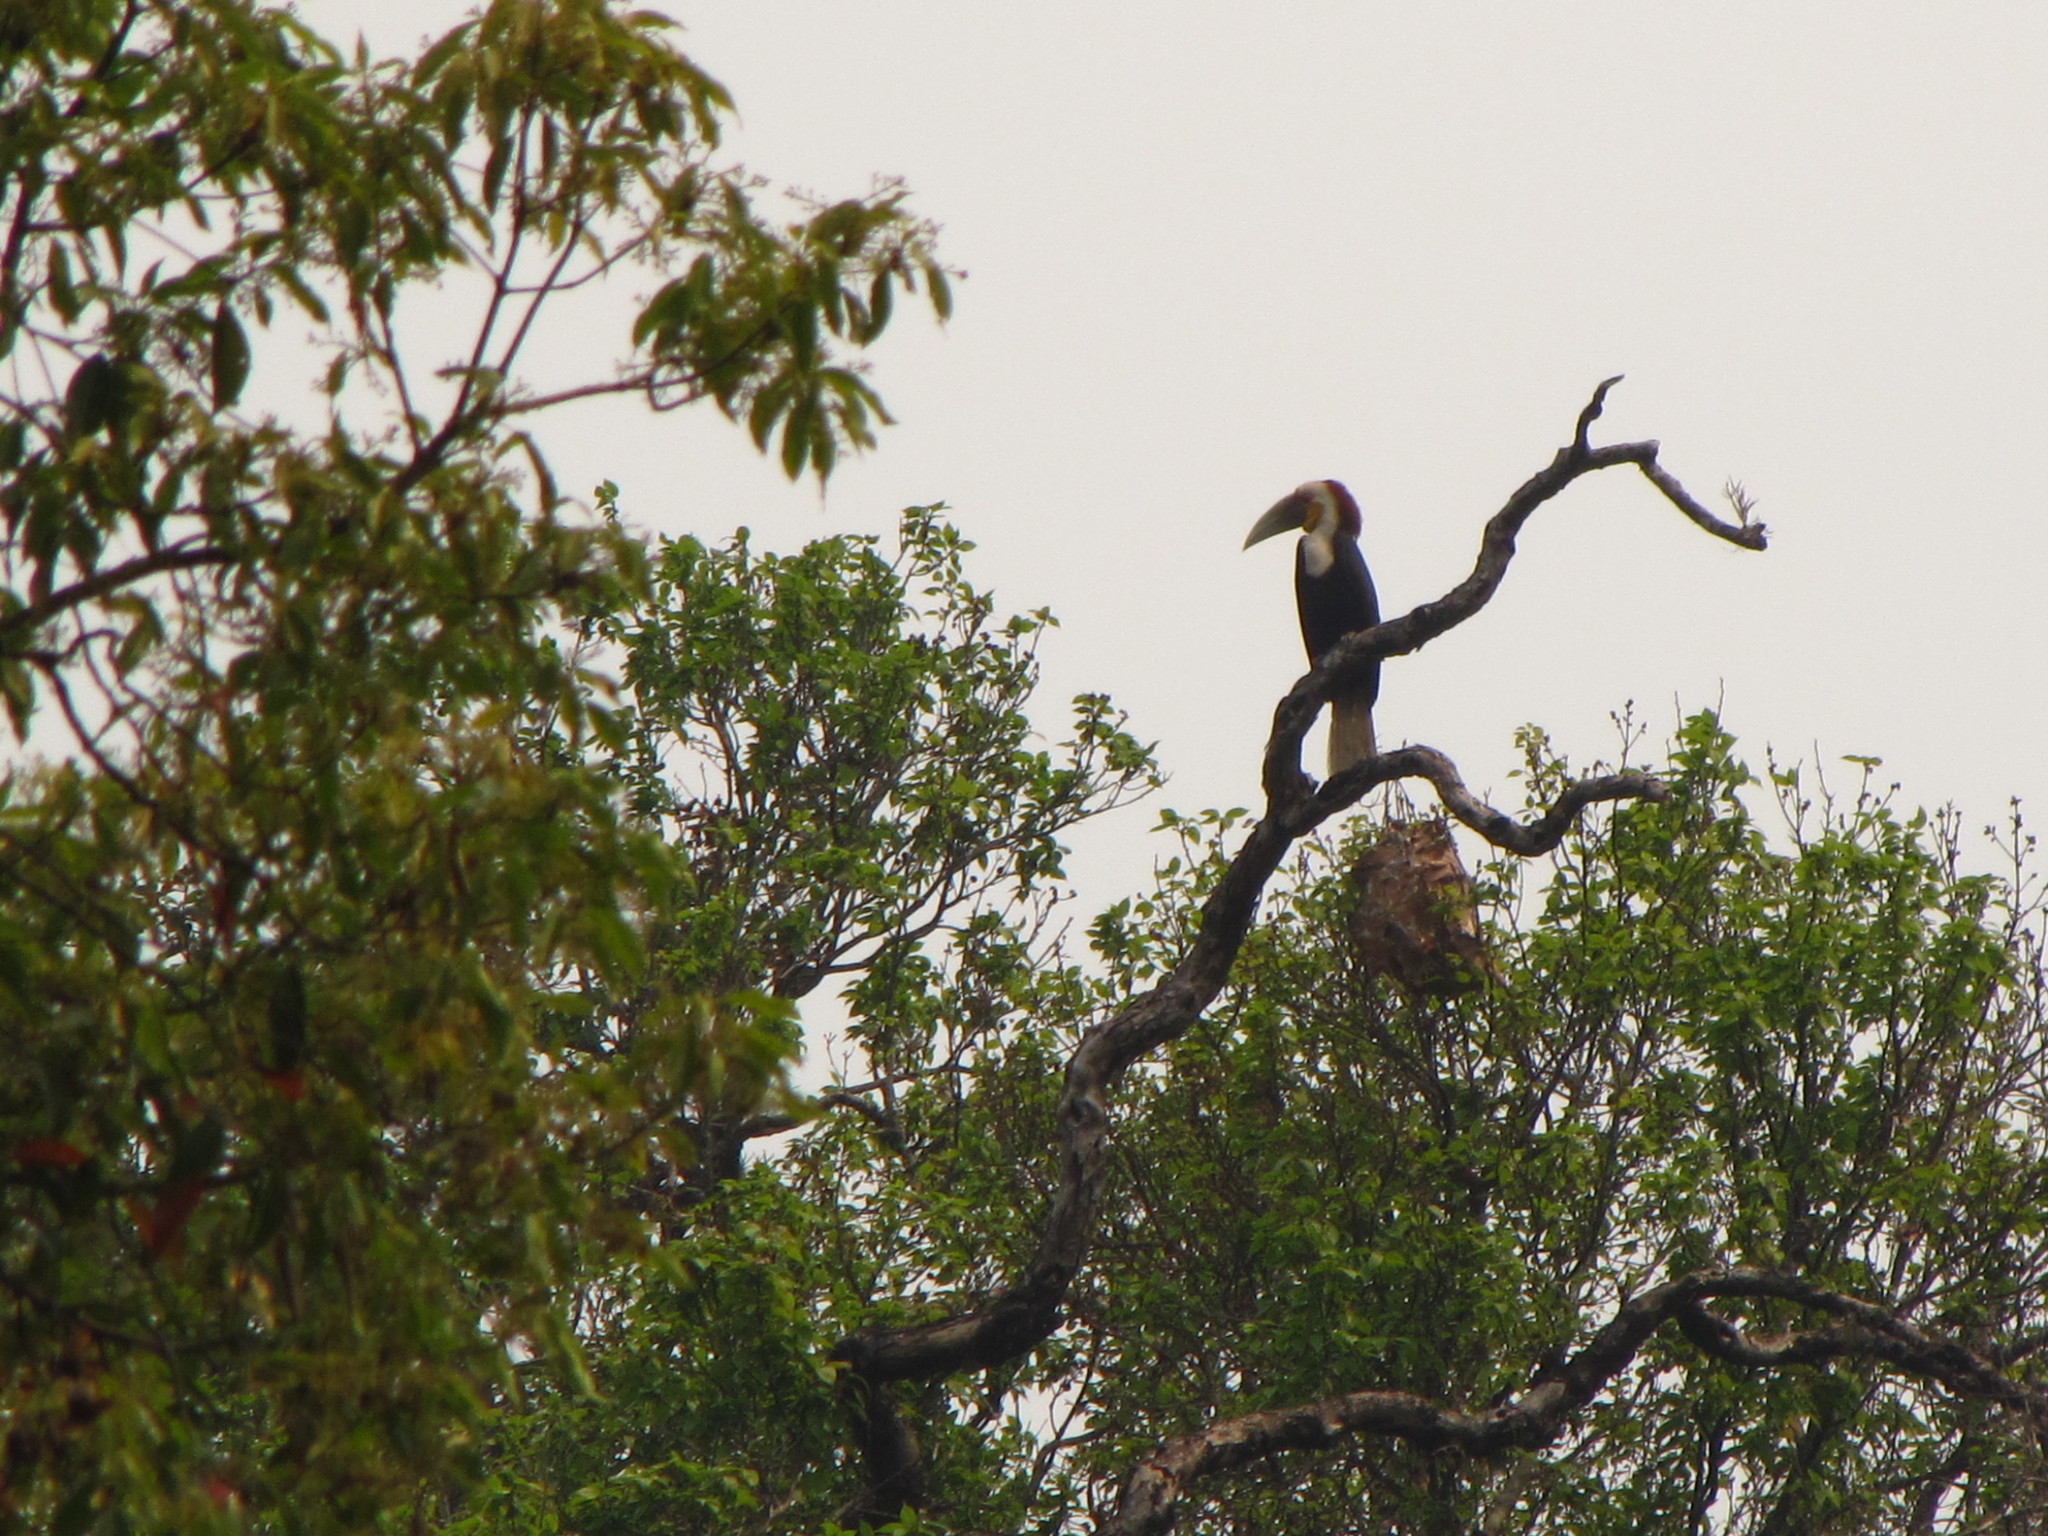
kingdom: Animalia
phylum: Chordata
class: Aves
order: Bucerotiformes
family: Bucerotidae
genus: Rhyticeros
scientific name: Rhyticeros undulatus
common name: Wreathed hornbill
